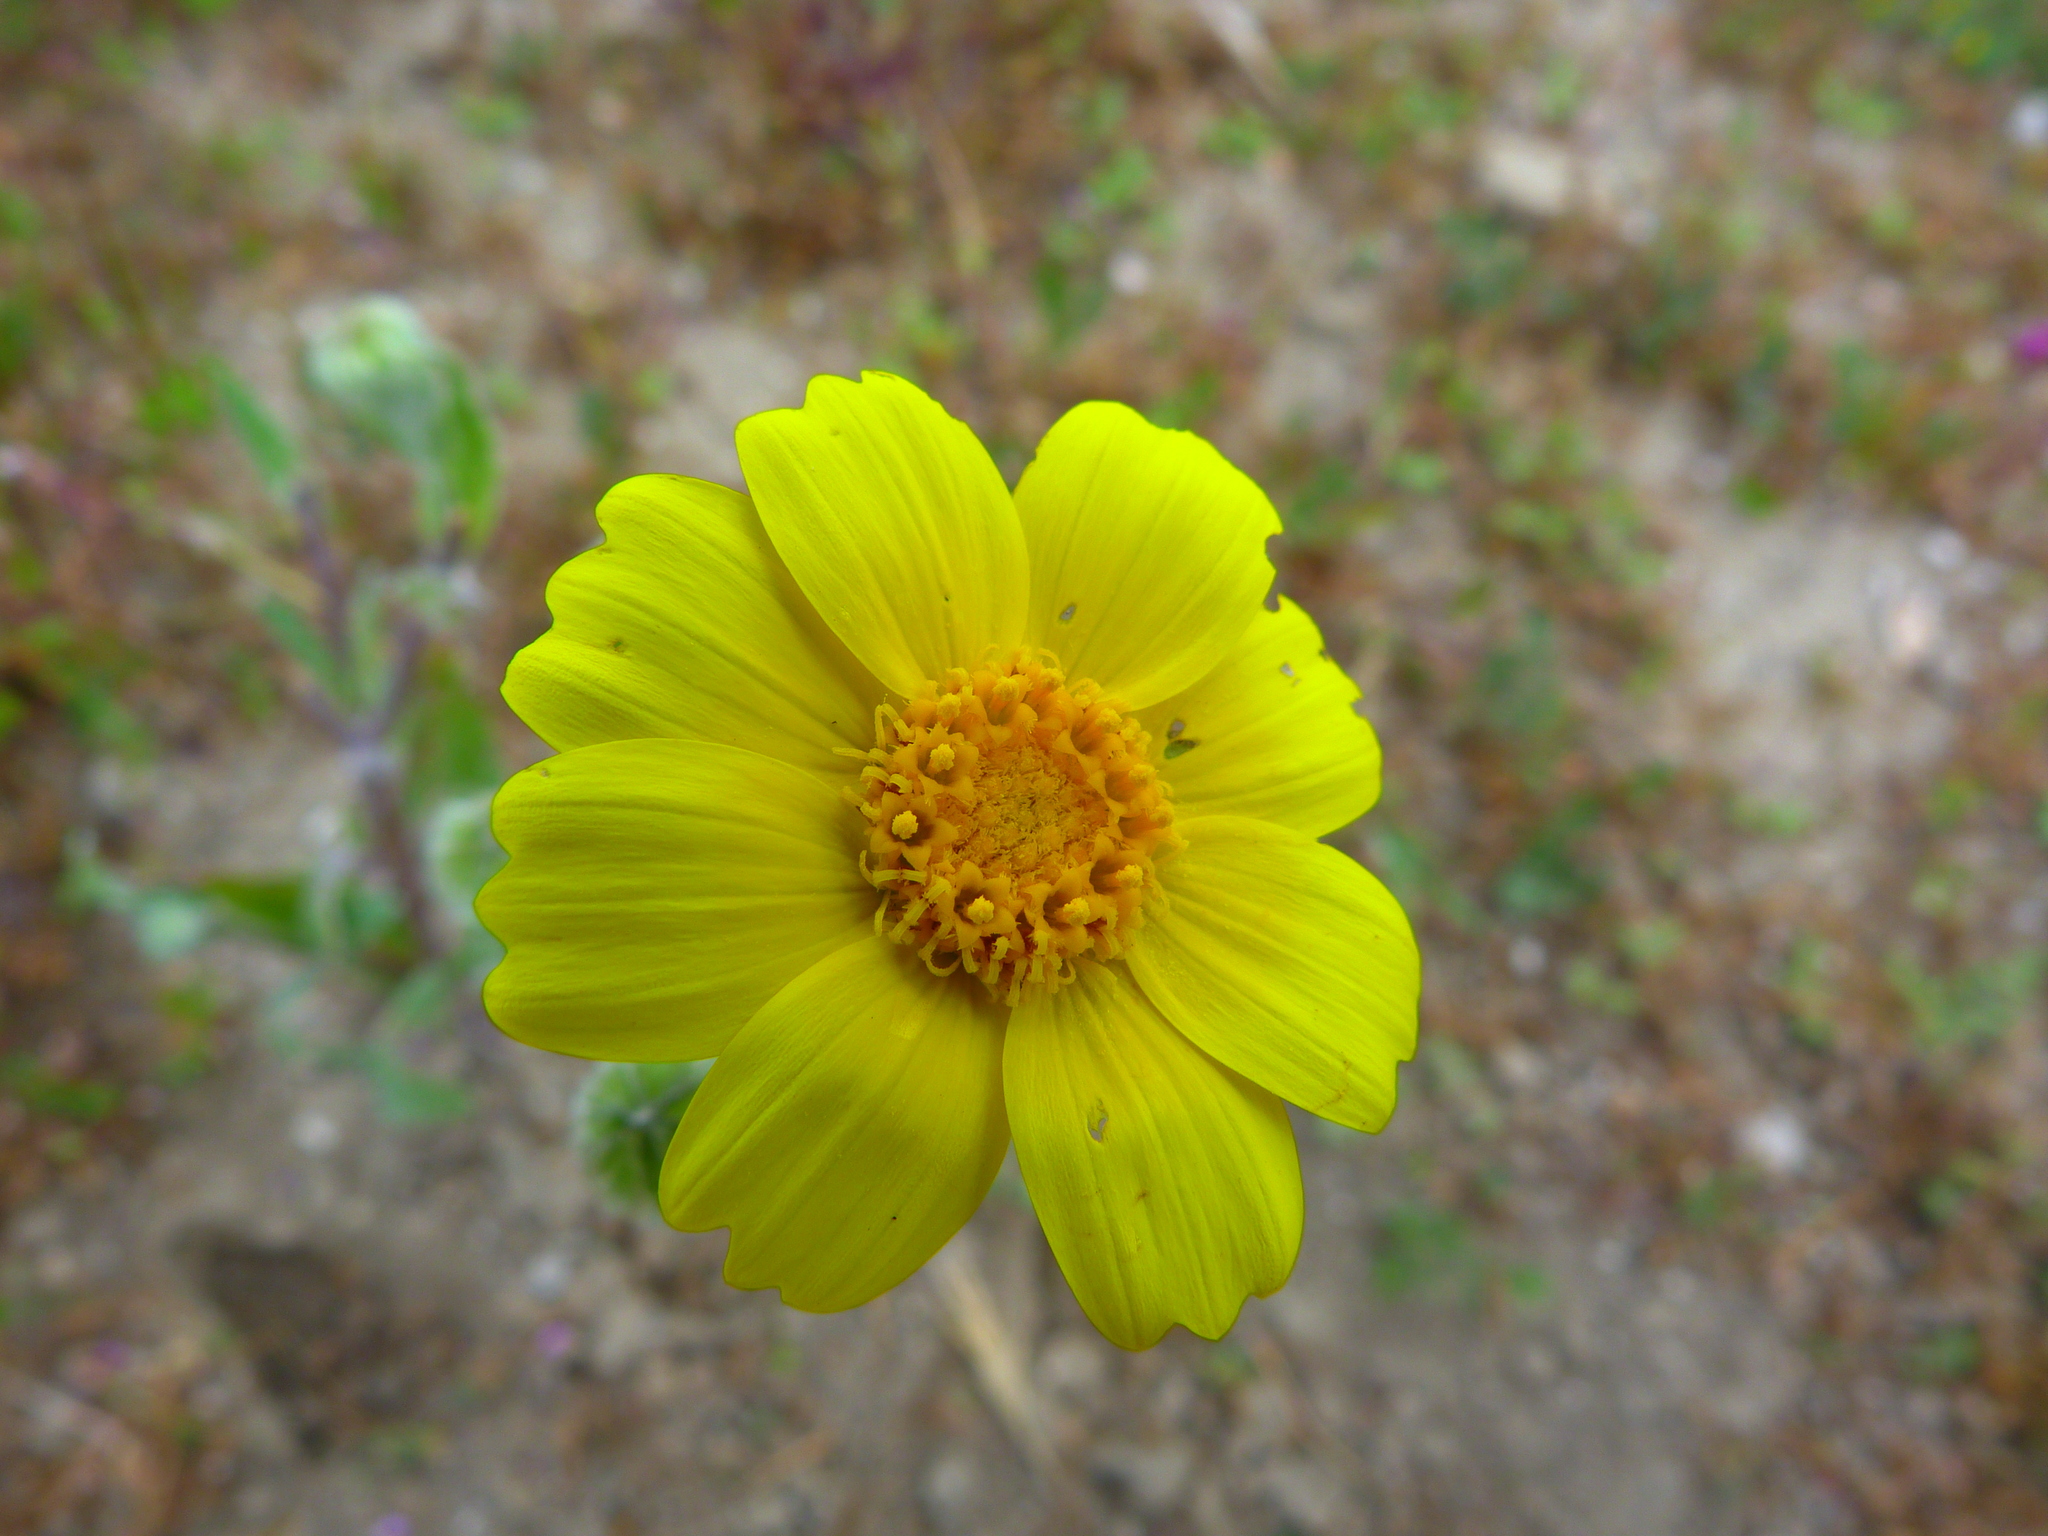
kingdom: Plantae
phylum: Tracheophyta
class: Magnoliopsida
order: Asterales
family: Asteraceae
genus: Monolopia
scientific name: Monolopia lanceolata
